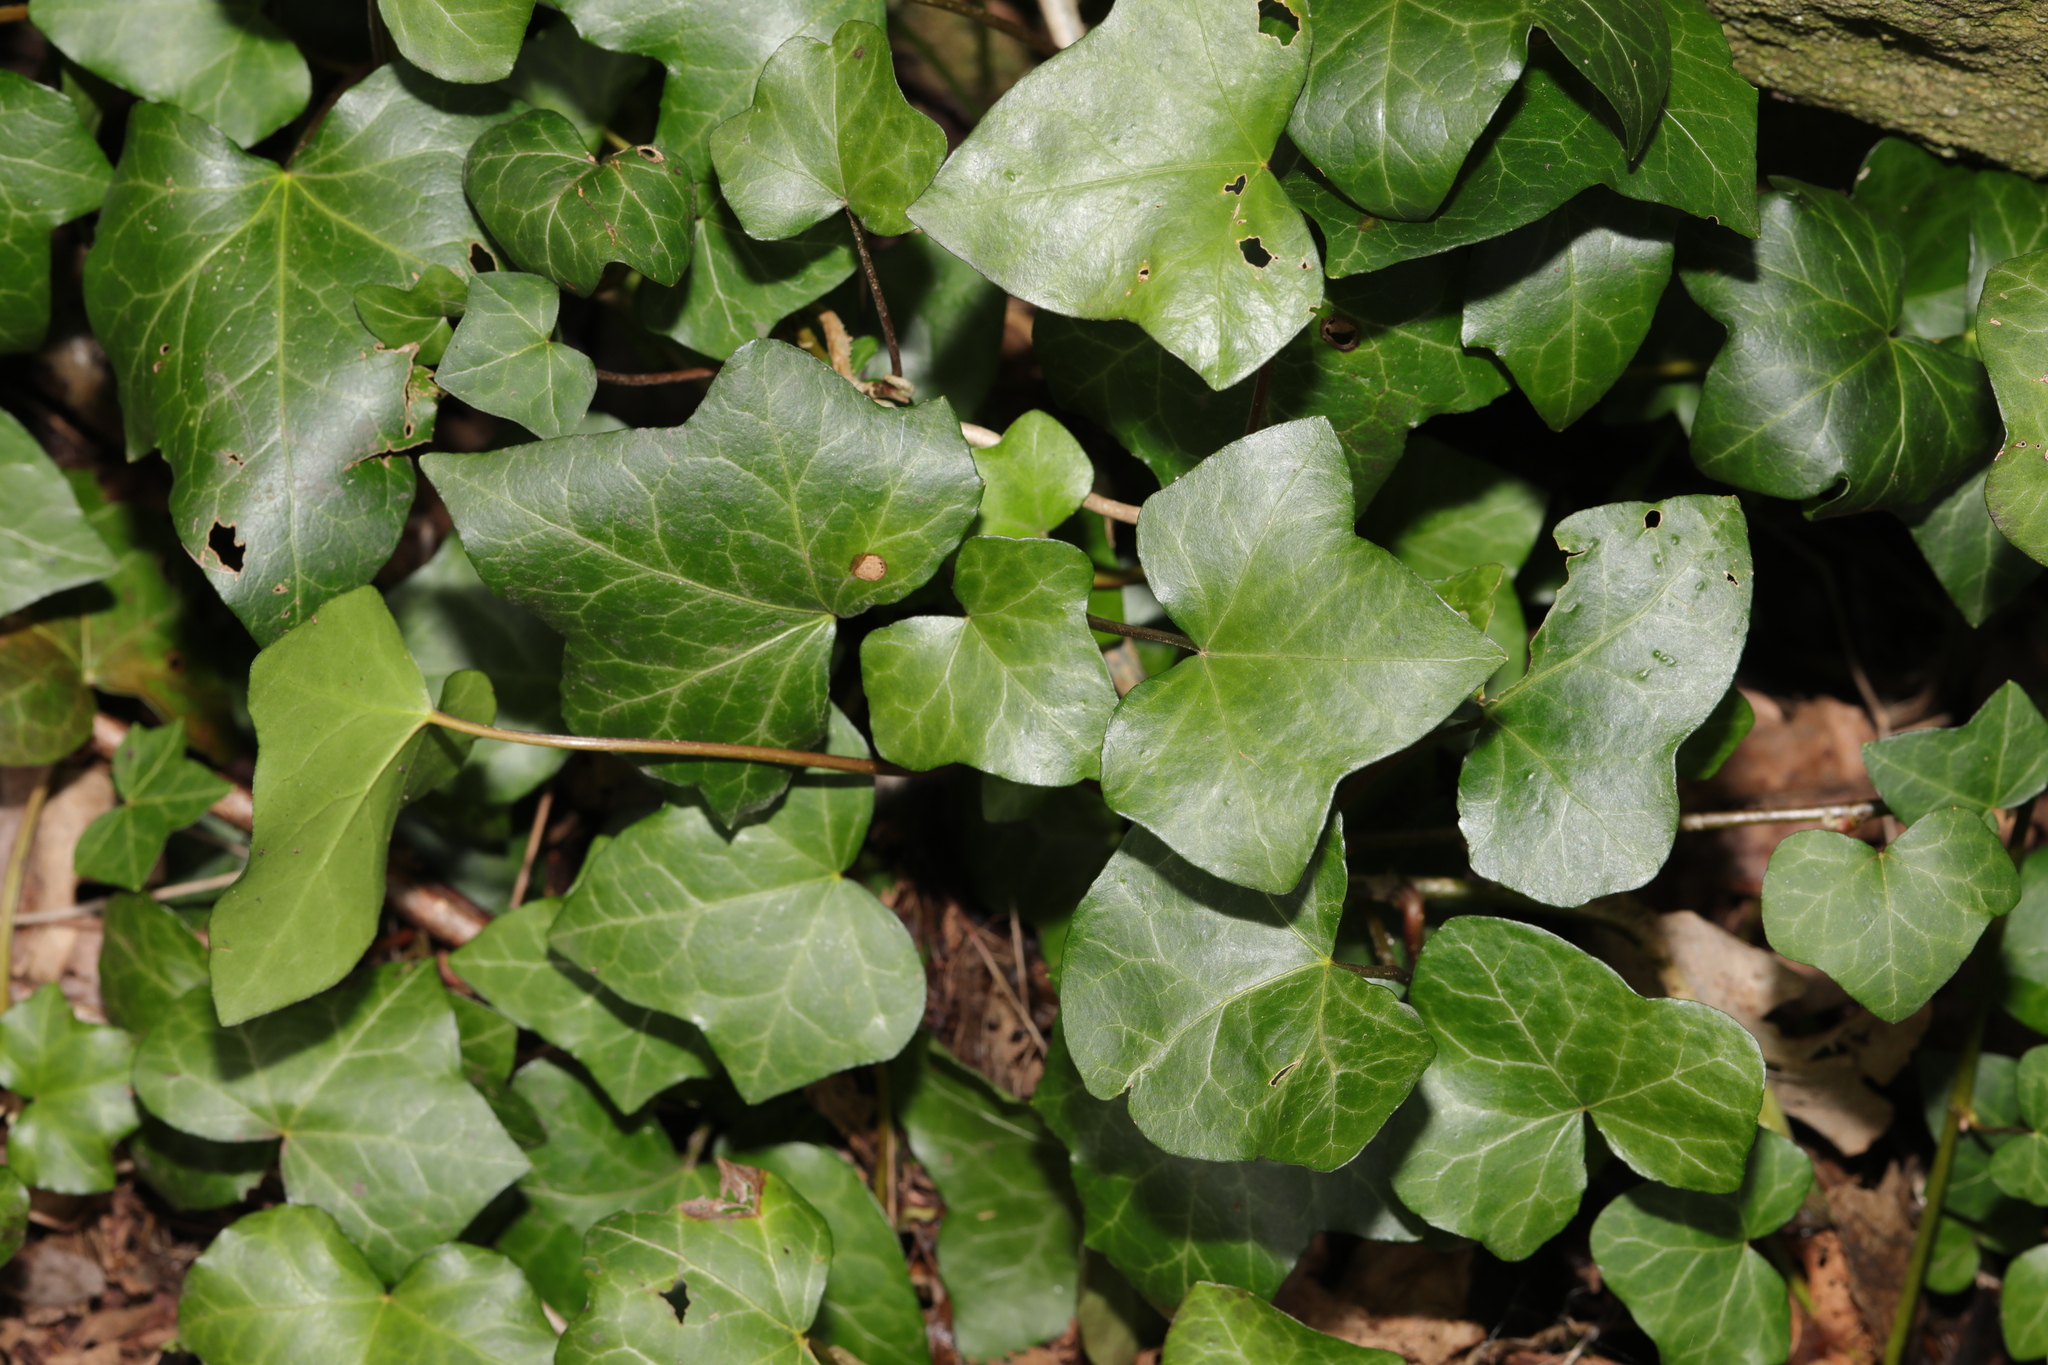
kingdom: Plantae
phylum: Tracheophyta
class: Magnoliopsida
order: Apiales
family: Araliaceae
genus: Hedera
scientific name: Hedera helix
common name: Ivy
